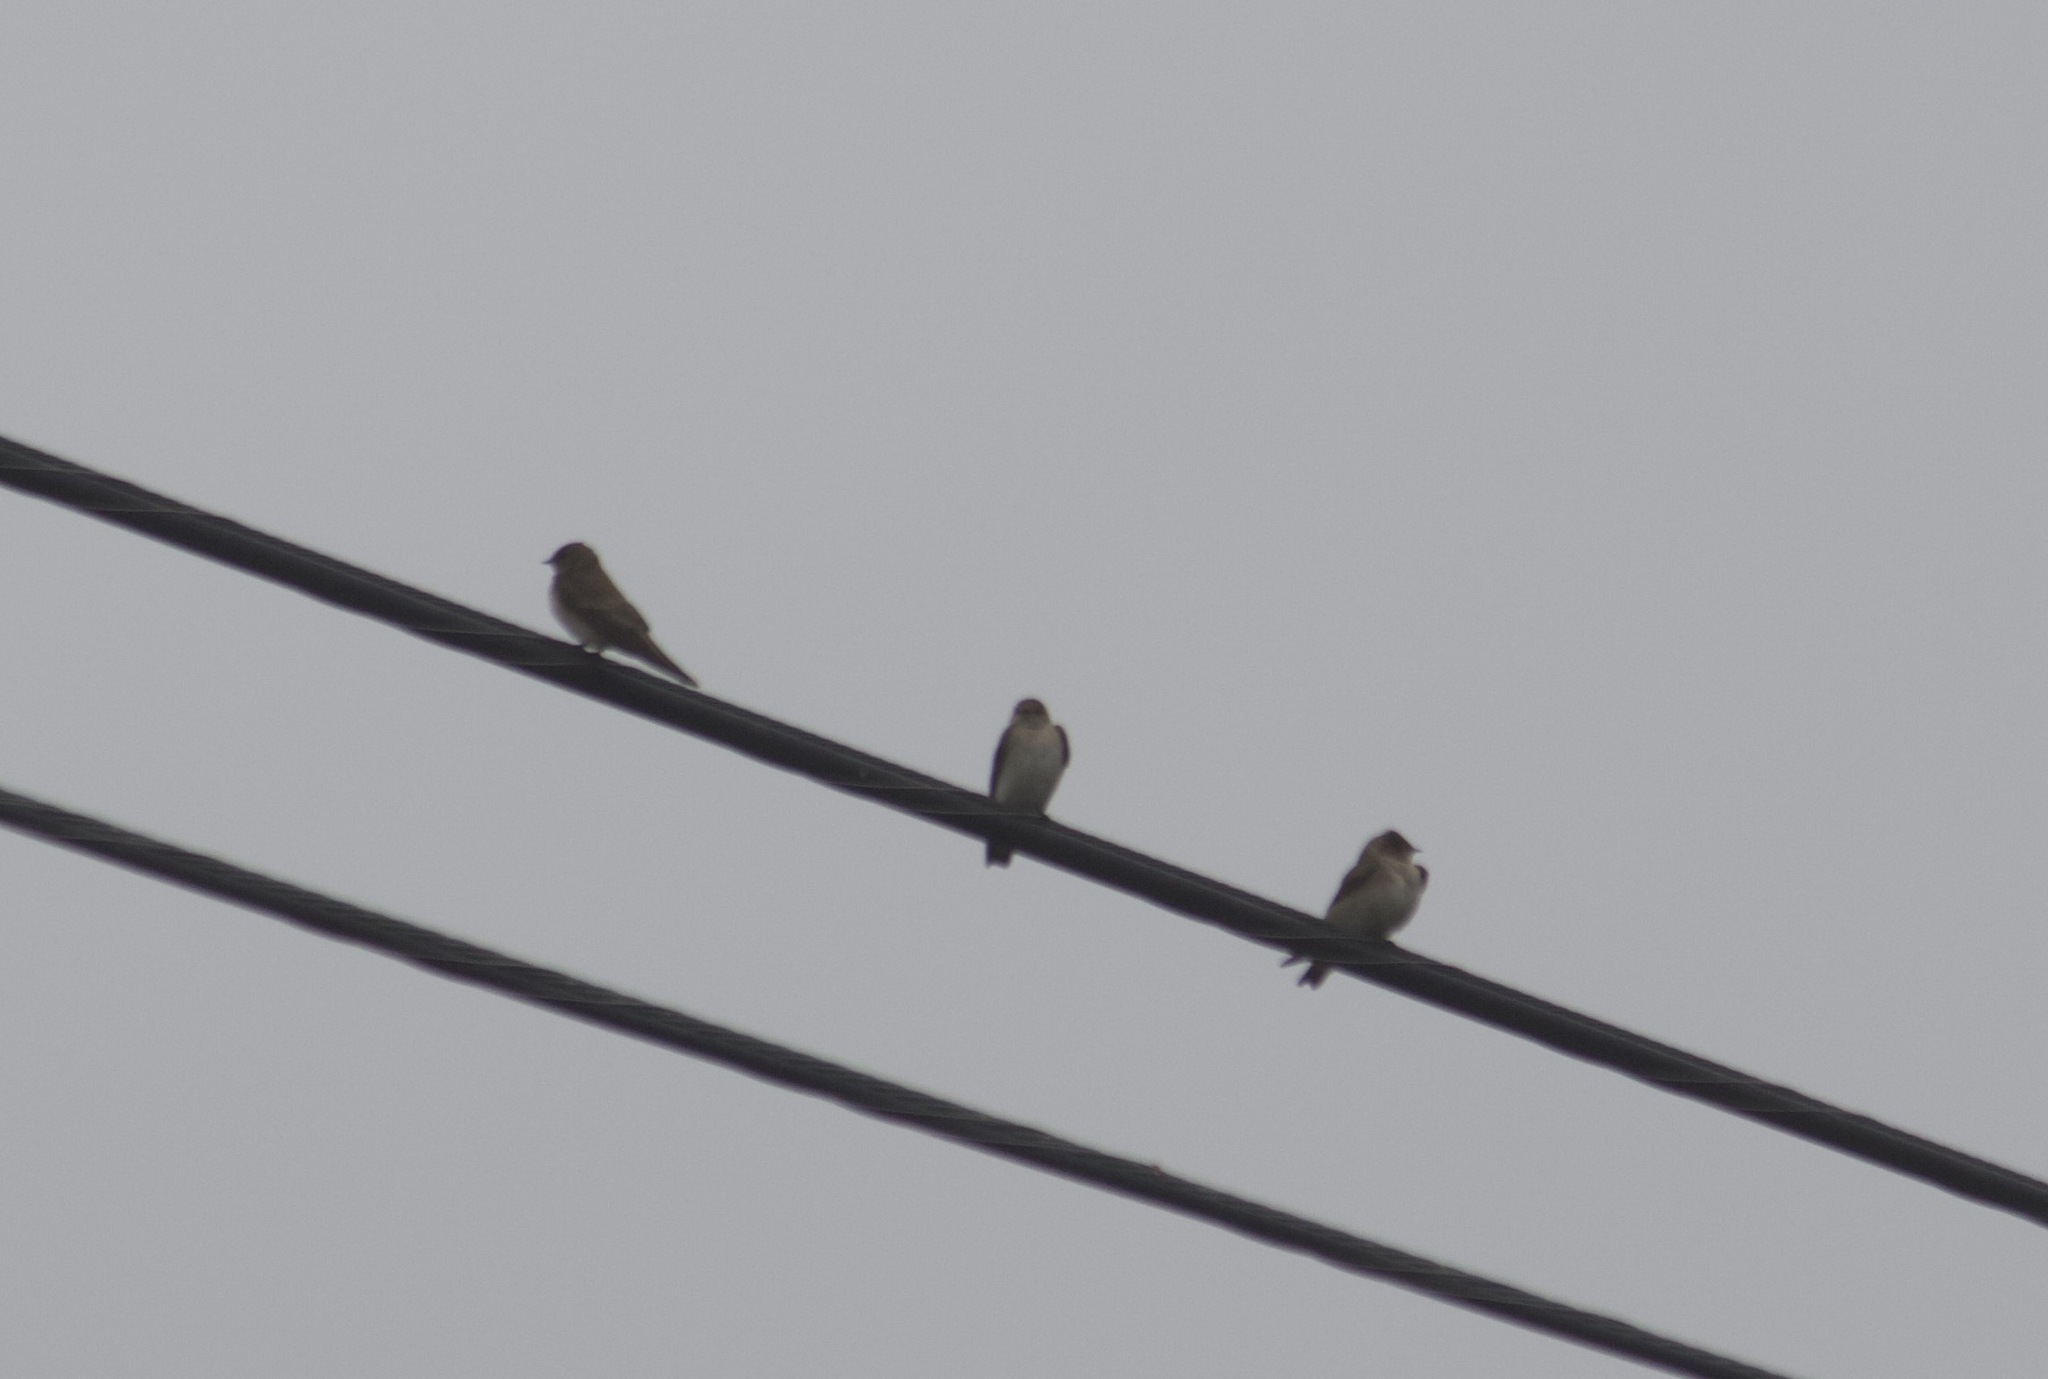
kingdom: Animalia
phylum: Chordata
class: Aves
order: Passeriformes
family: Hirundinidae
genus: Stelgidopteryx
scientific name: Stelgidopteryx serripennis
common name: Northern rough-winged swallow
